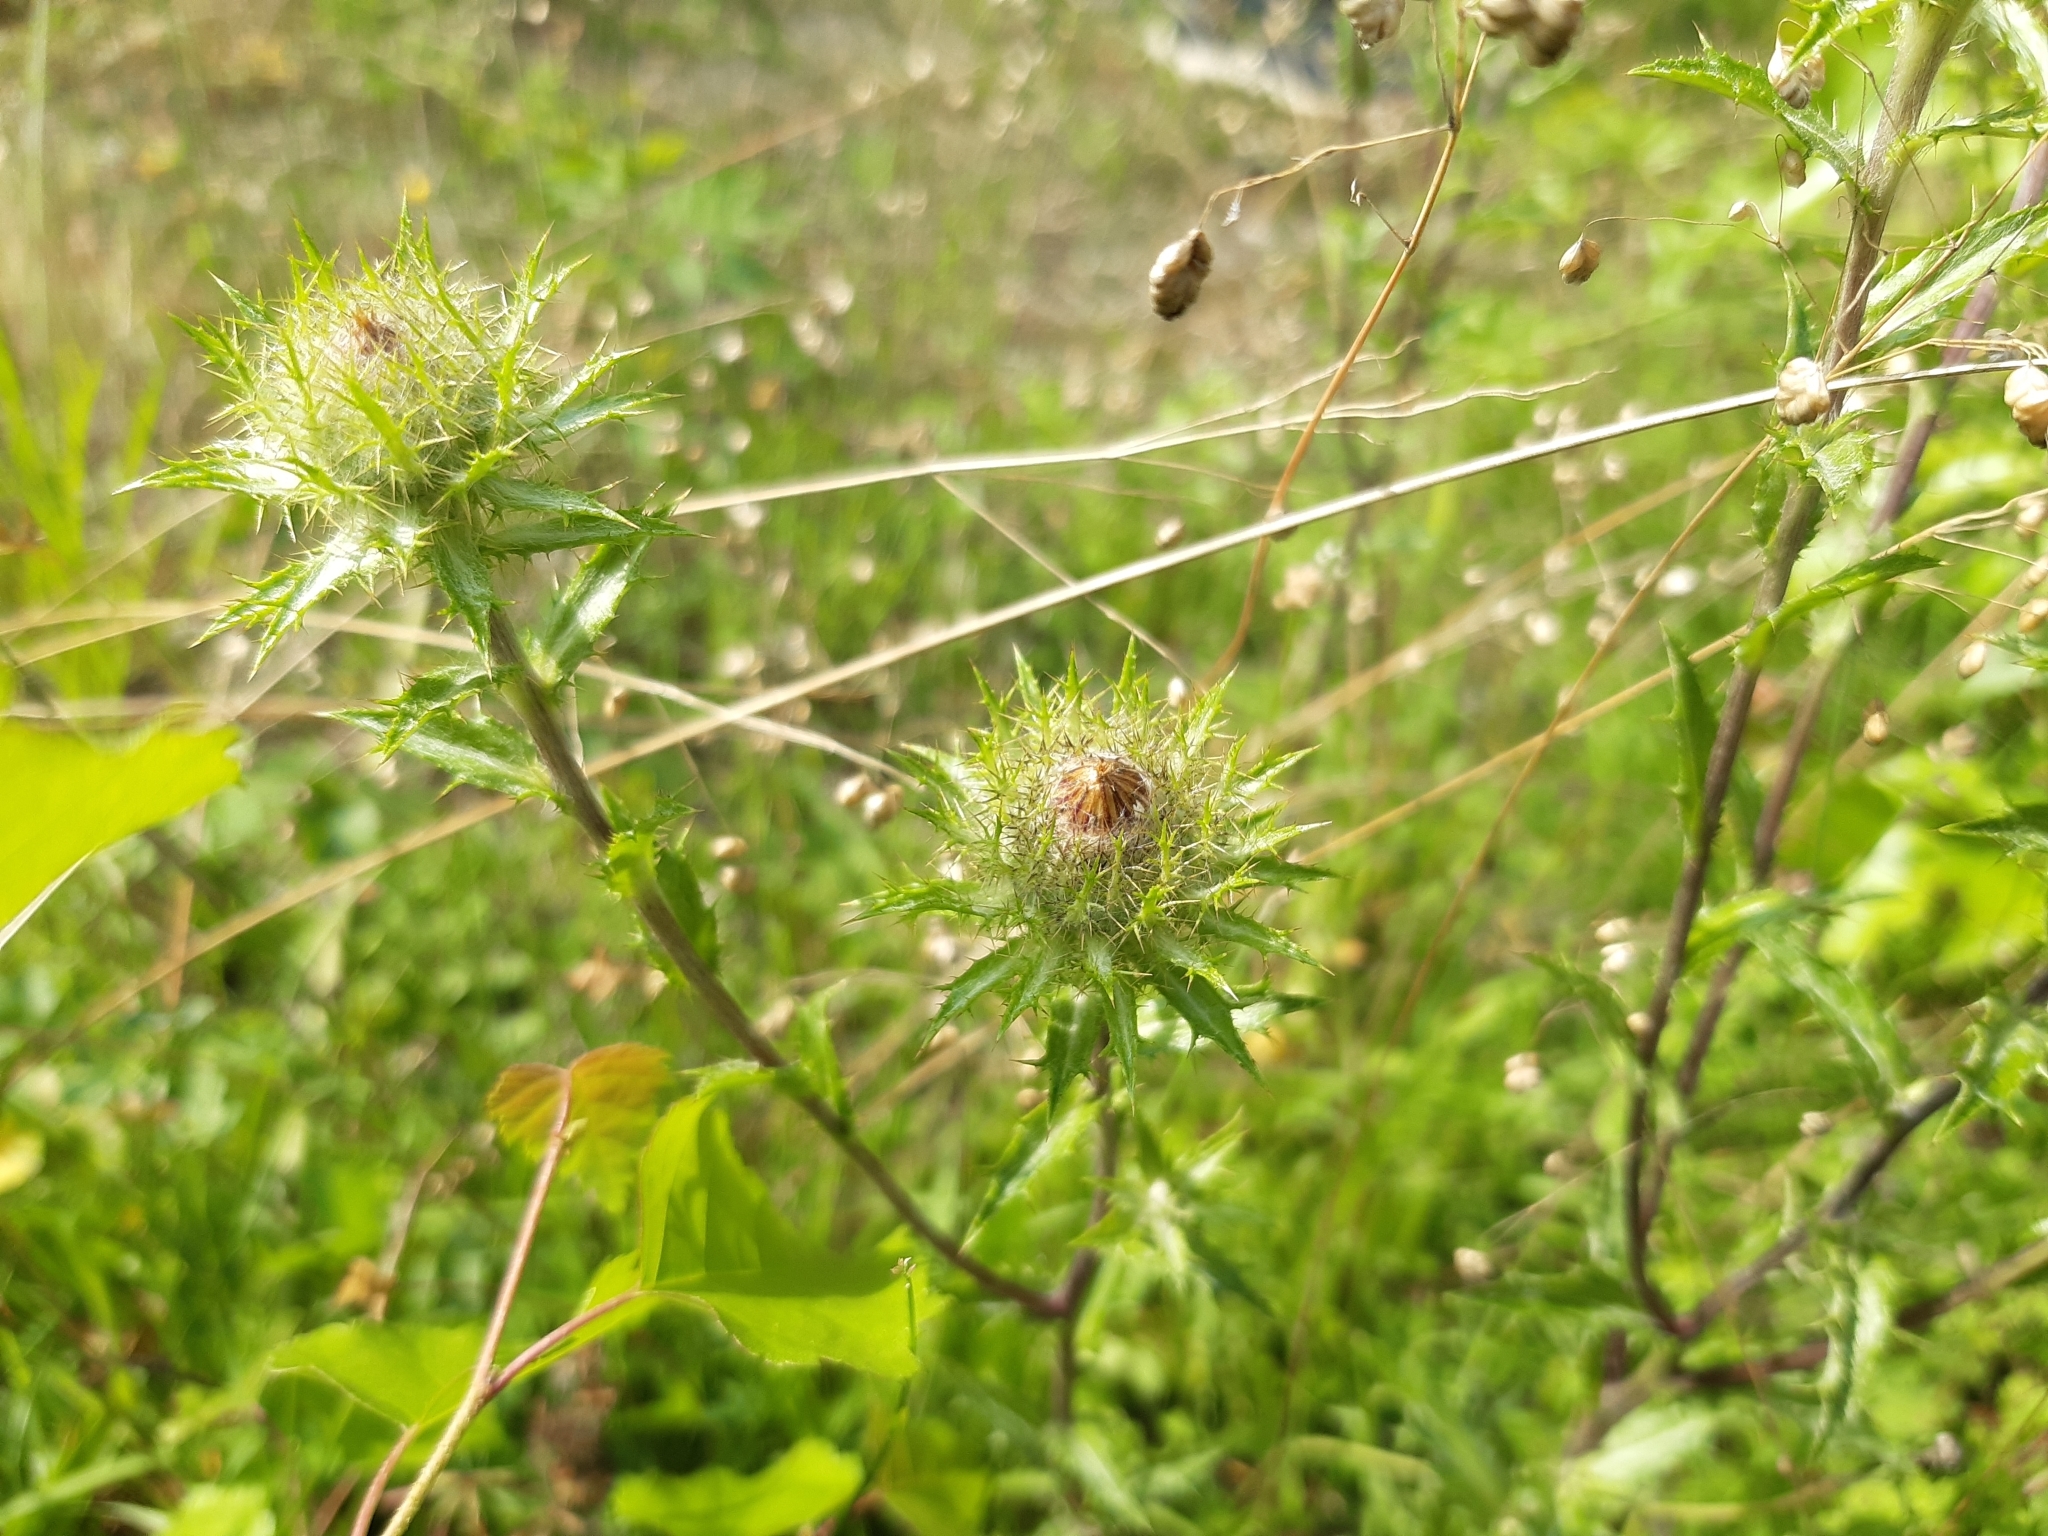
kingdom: Plantae
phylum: Tracheophyta
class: Magnoliopsida
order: Asterales
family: Asteraceae
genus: Carlina
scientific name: Carlina vulgaris
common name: Carline thistle
